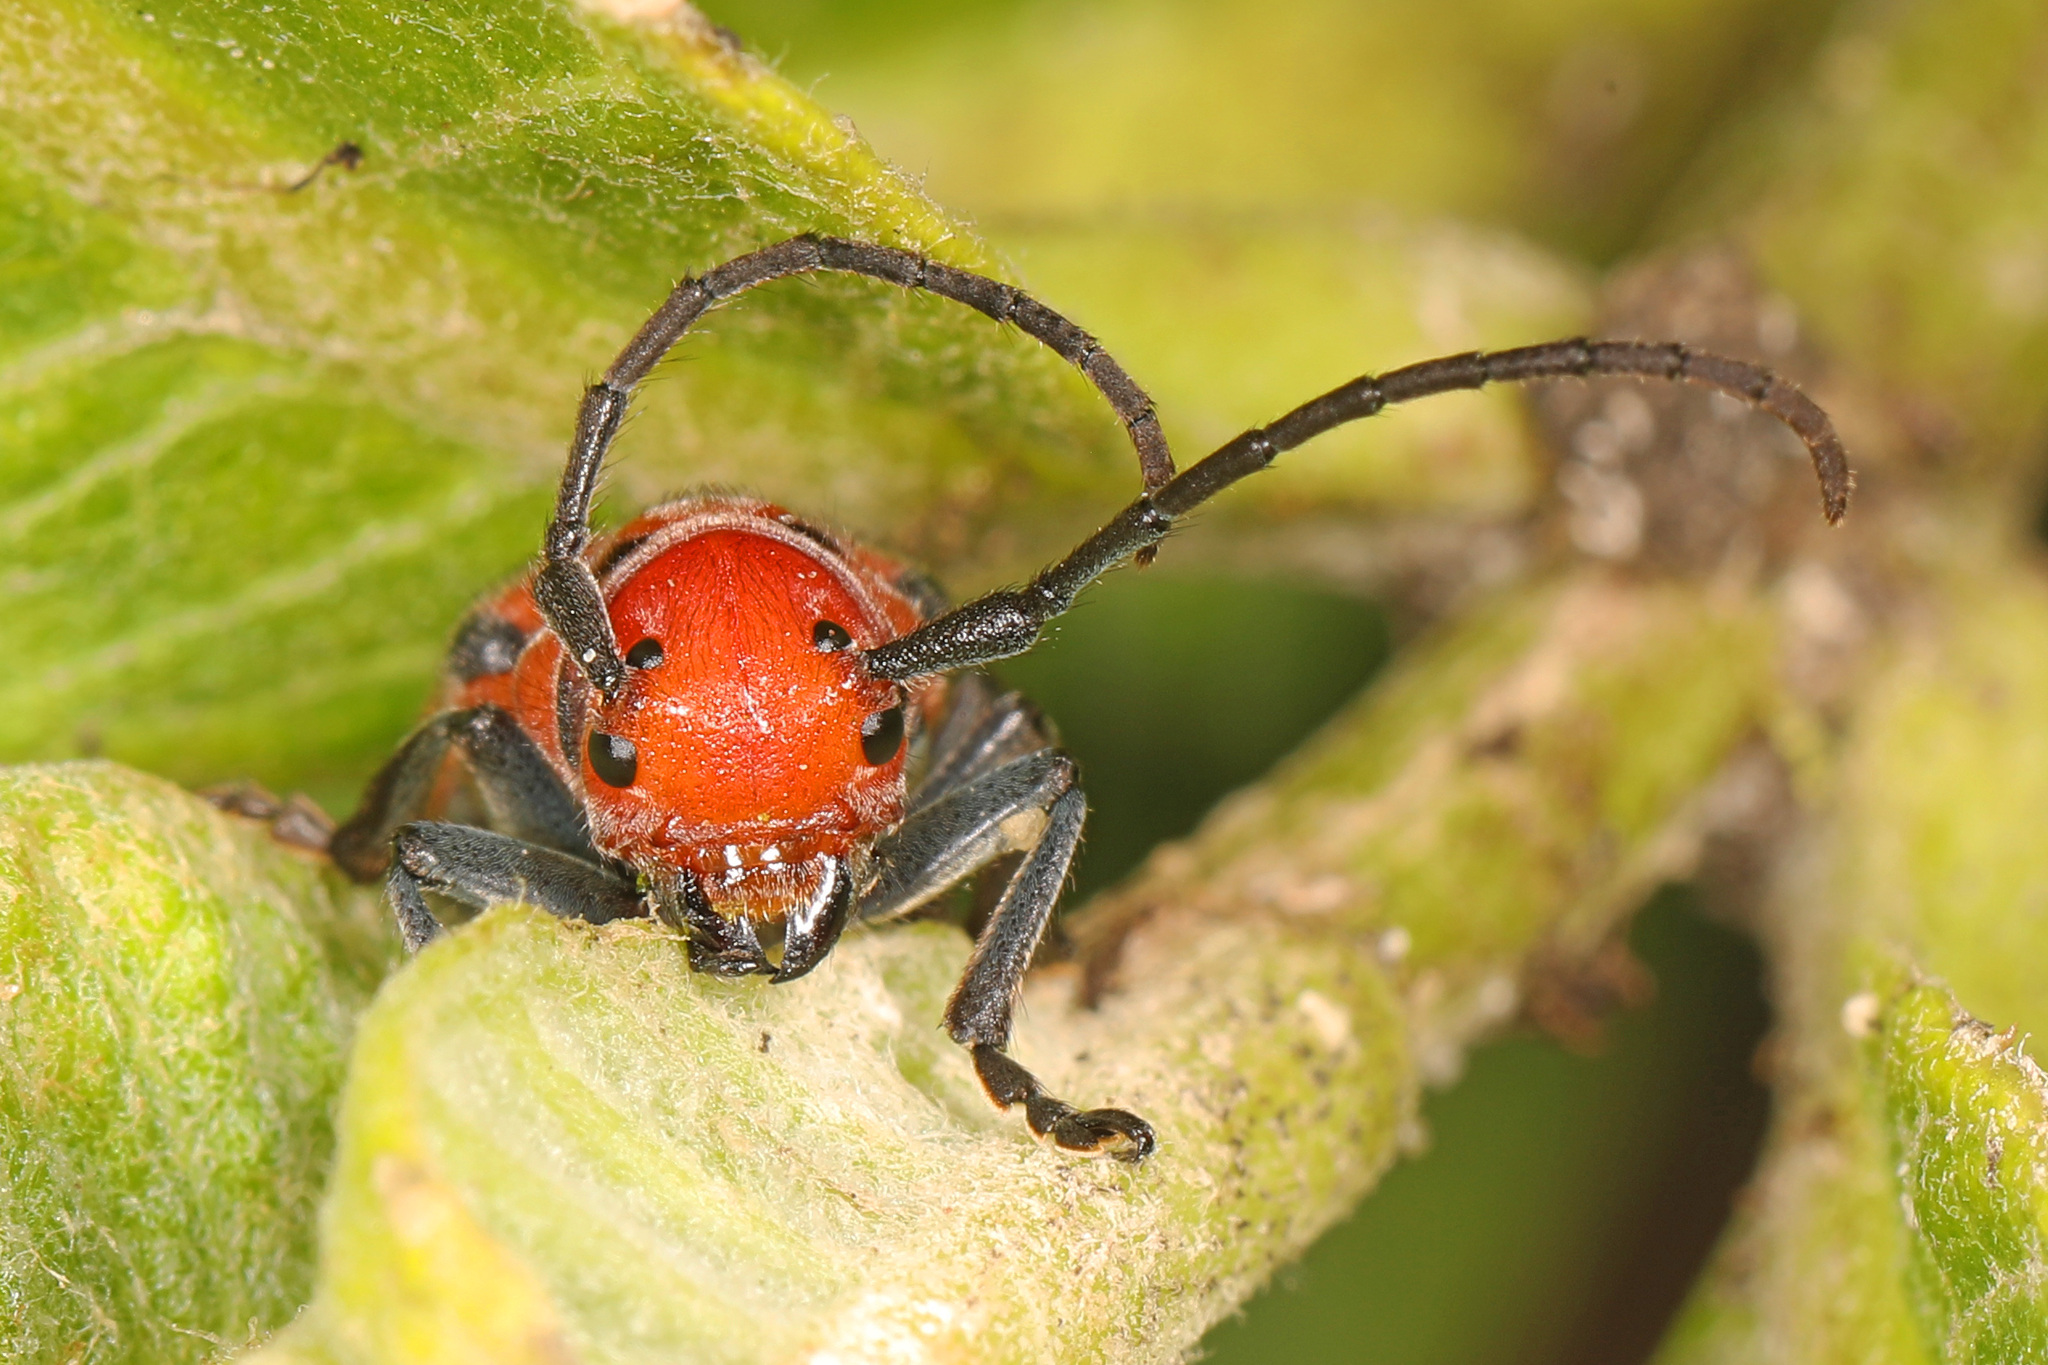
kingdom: Animalia
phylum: Arthropoda
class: Insecta
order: Coleoptera
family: Cerambycidae
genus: Tetraopes
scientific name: Tetraopes tetrophthalmus
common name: Red milkweed beetle
